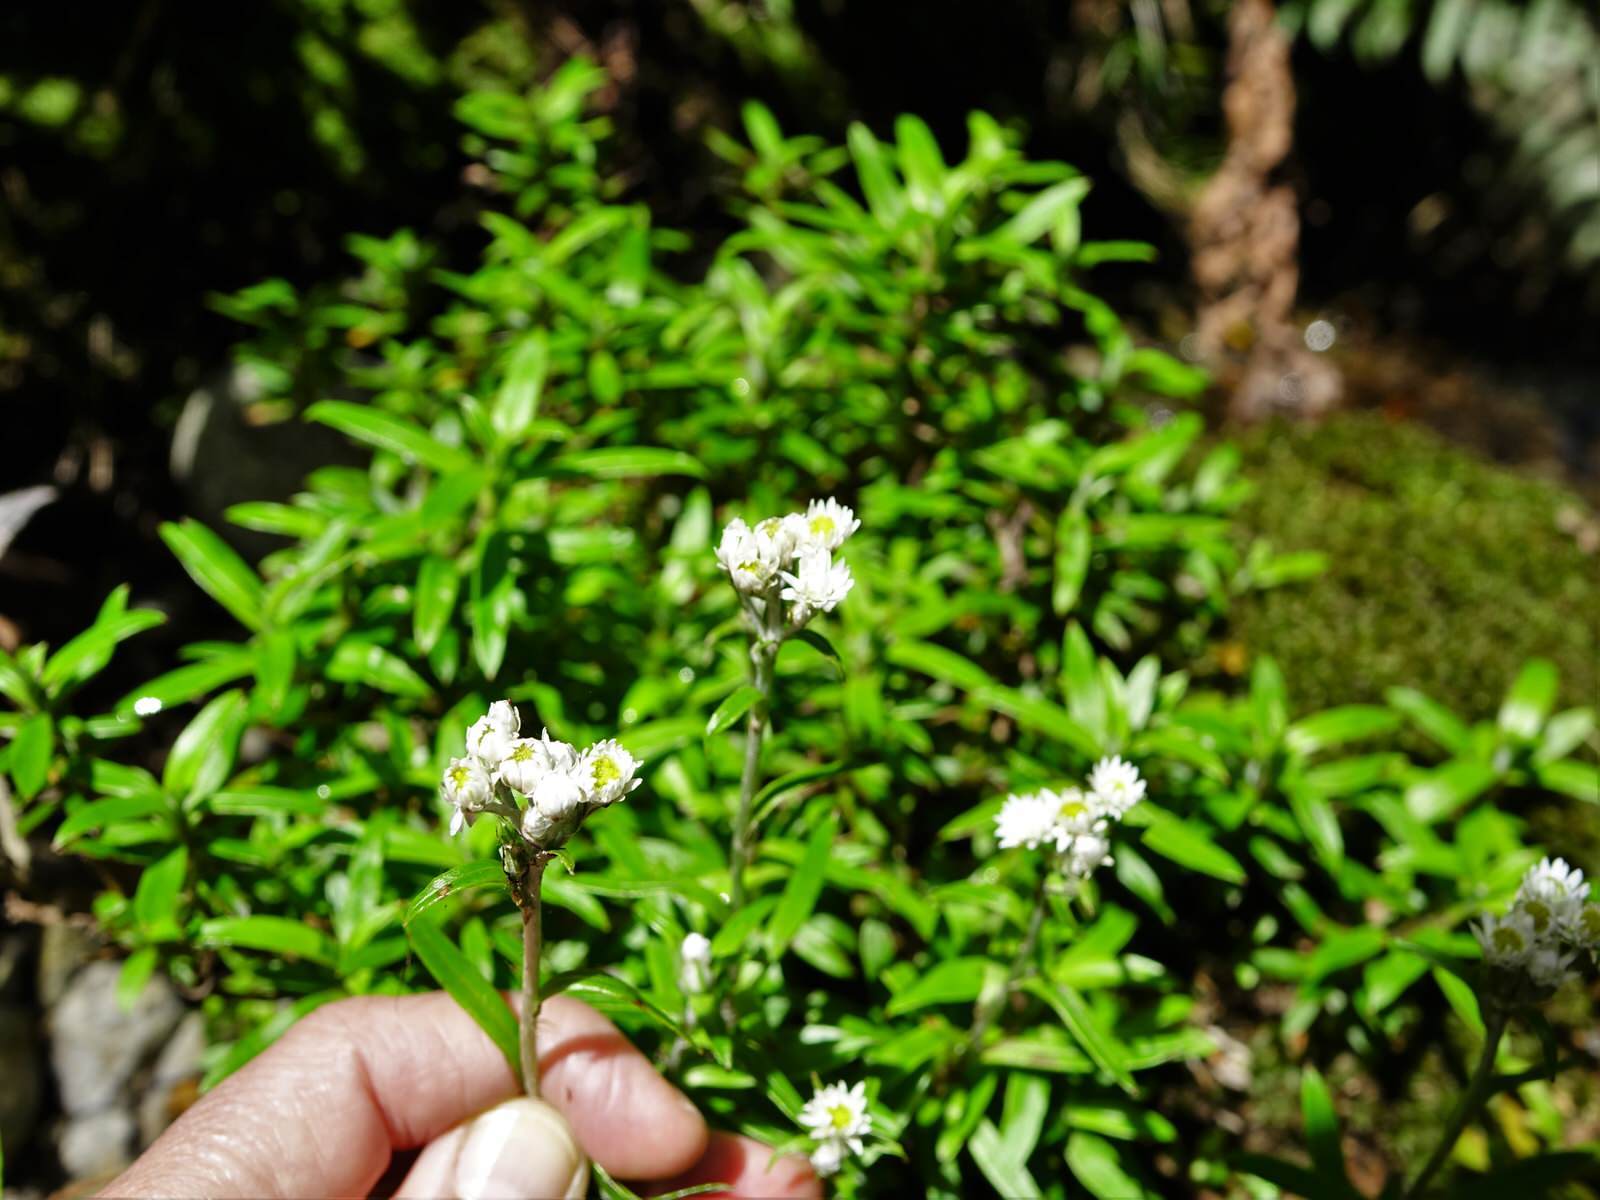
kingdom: Plantae
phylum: Tracheophyta
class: Magnoliopsida
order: Asterales
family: Asteraceae
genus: Anaphalioides
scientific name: Anaphalioides trinervis
